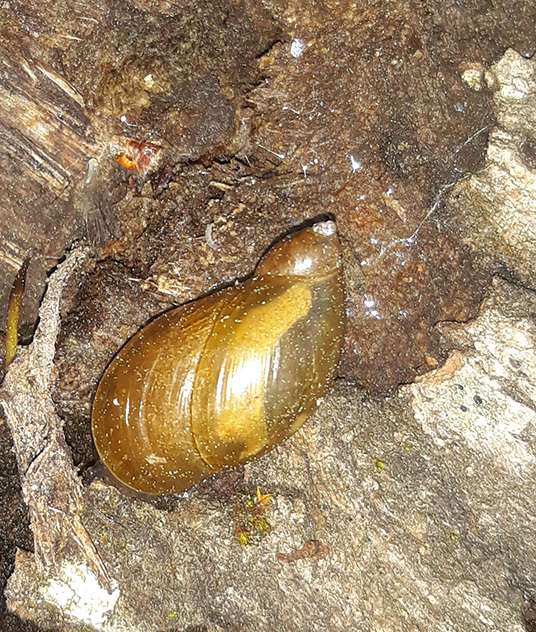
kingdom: Animalia
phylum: Mollusca
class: Gastropoda
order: Stylommatophora
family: Succineidae
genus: Succinea
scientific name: Succinea putris
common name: European ambersnail
